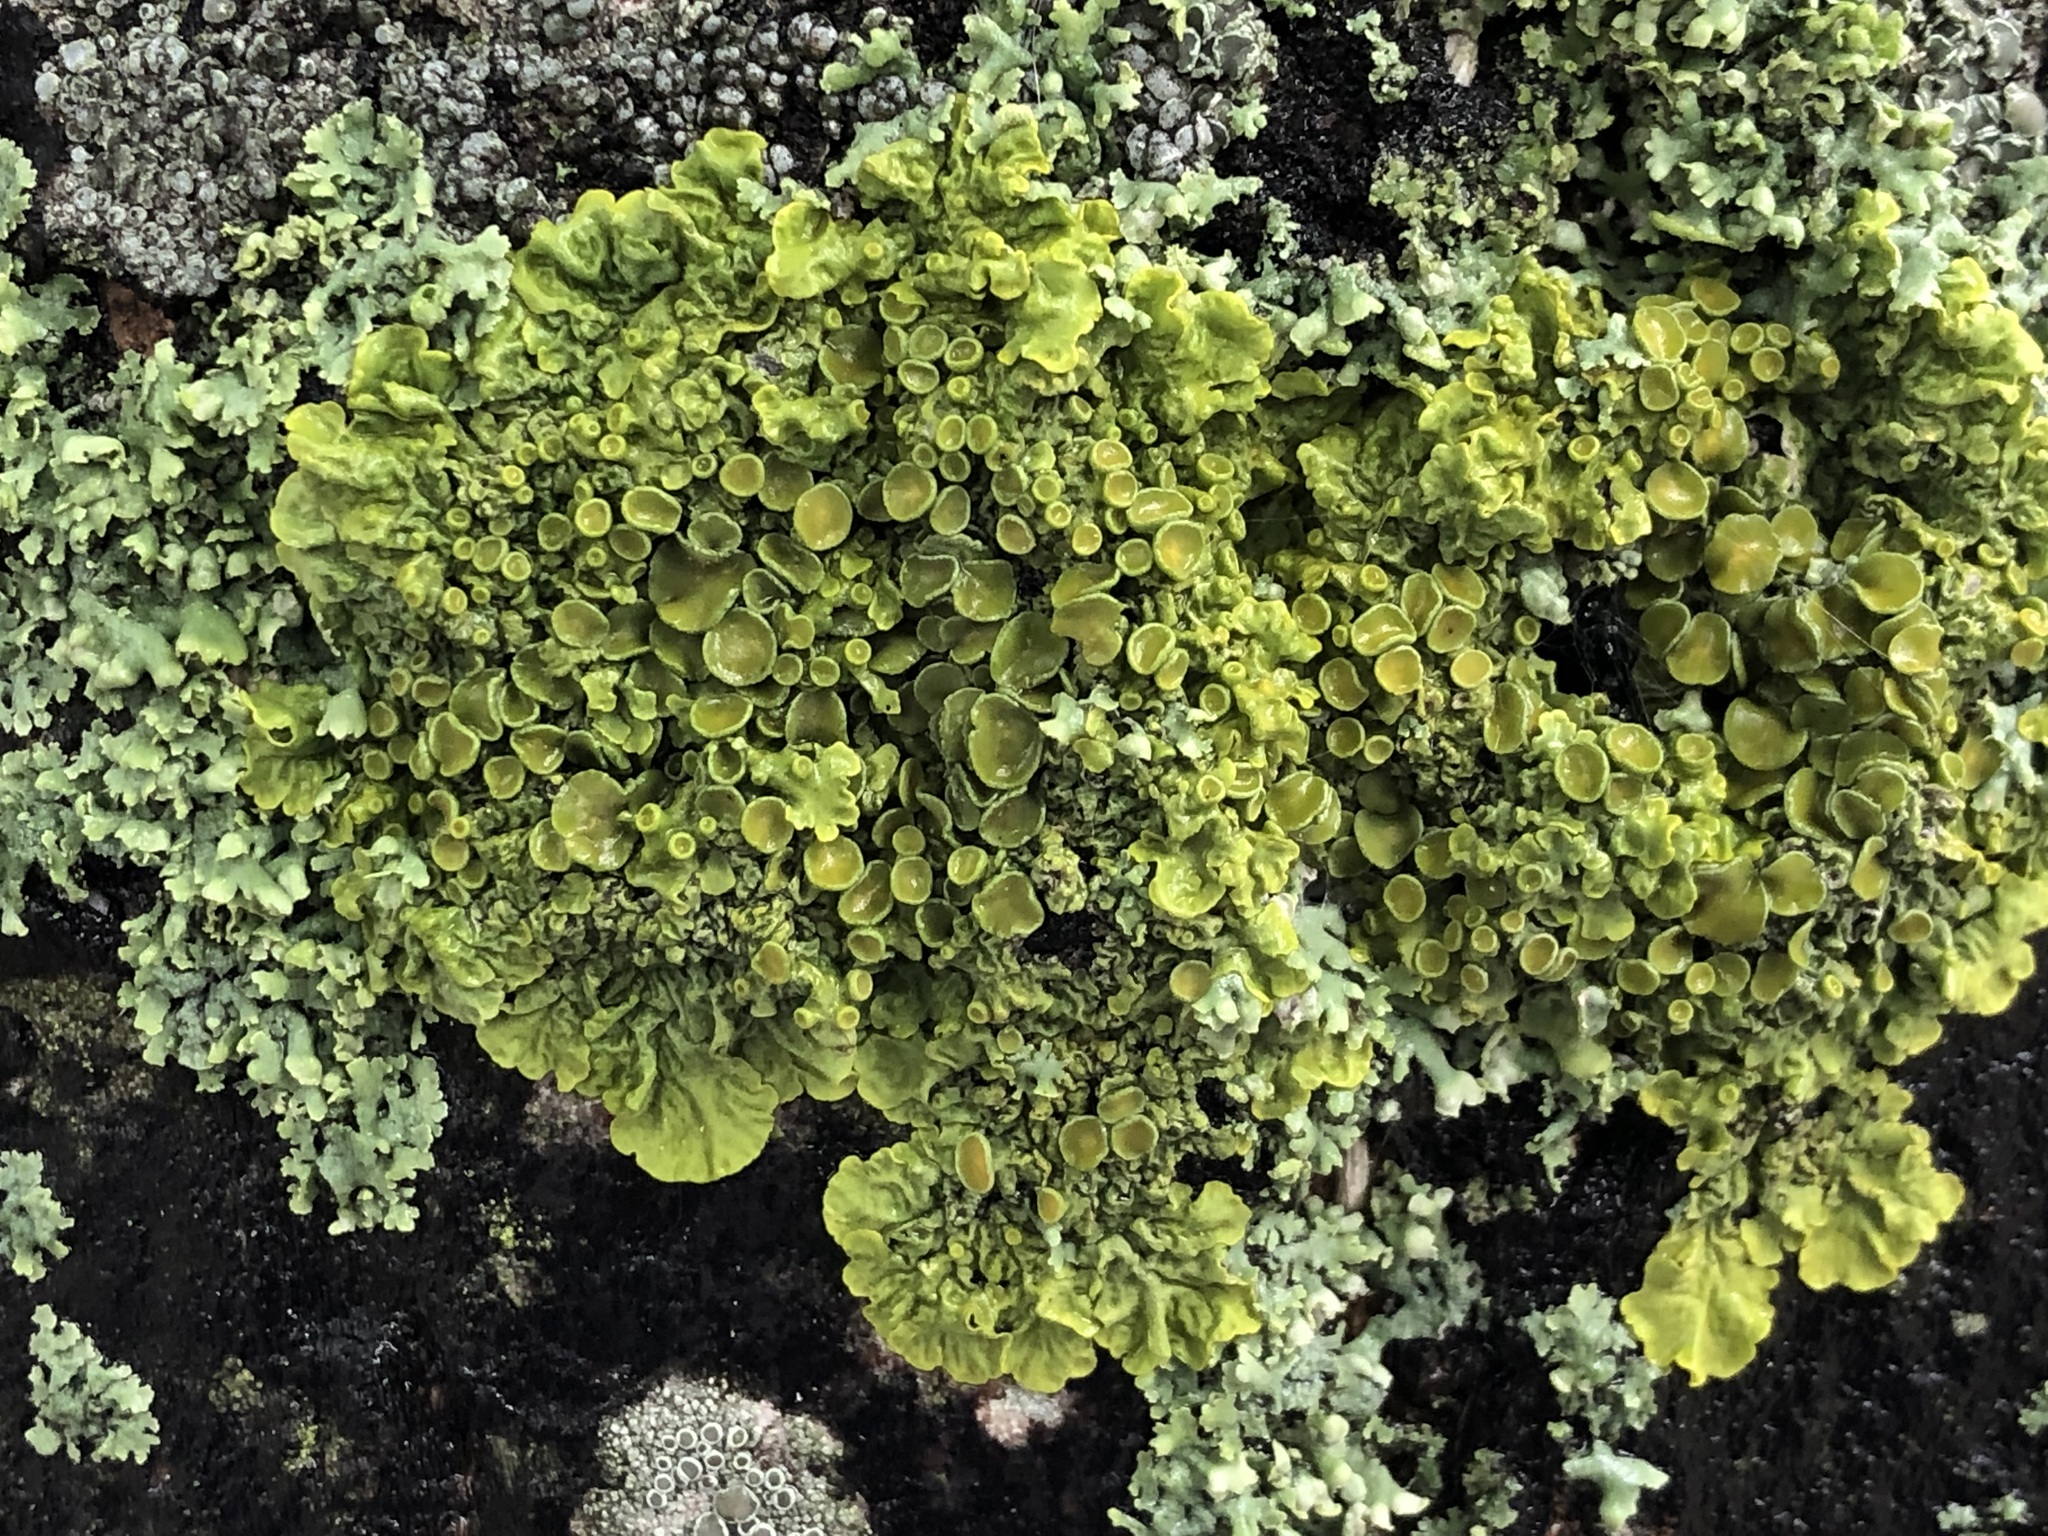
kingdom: Fungi
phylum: Ascomycota
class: Lecanoromycetes
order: Teloschistales
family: Teloschistaceae
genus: Xanthoria
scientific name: Xanthoria parietina
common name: Common orange lichen
